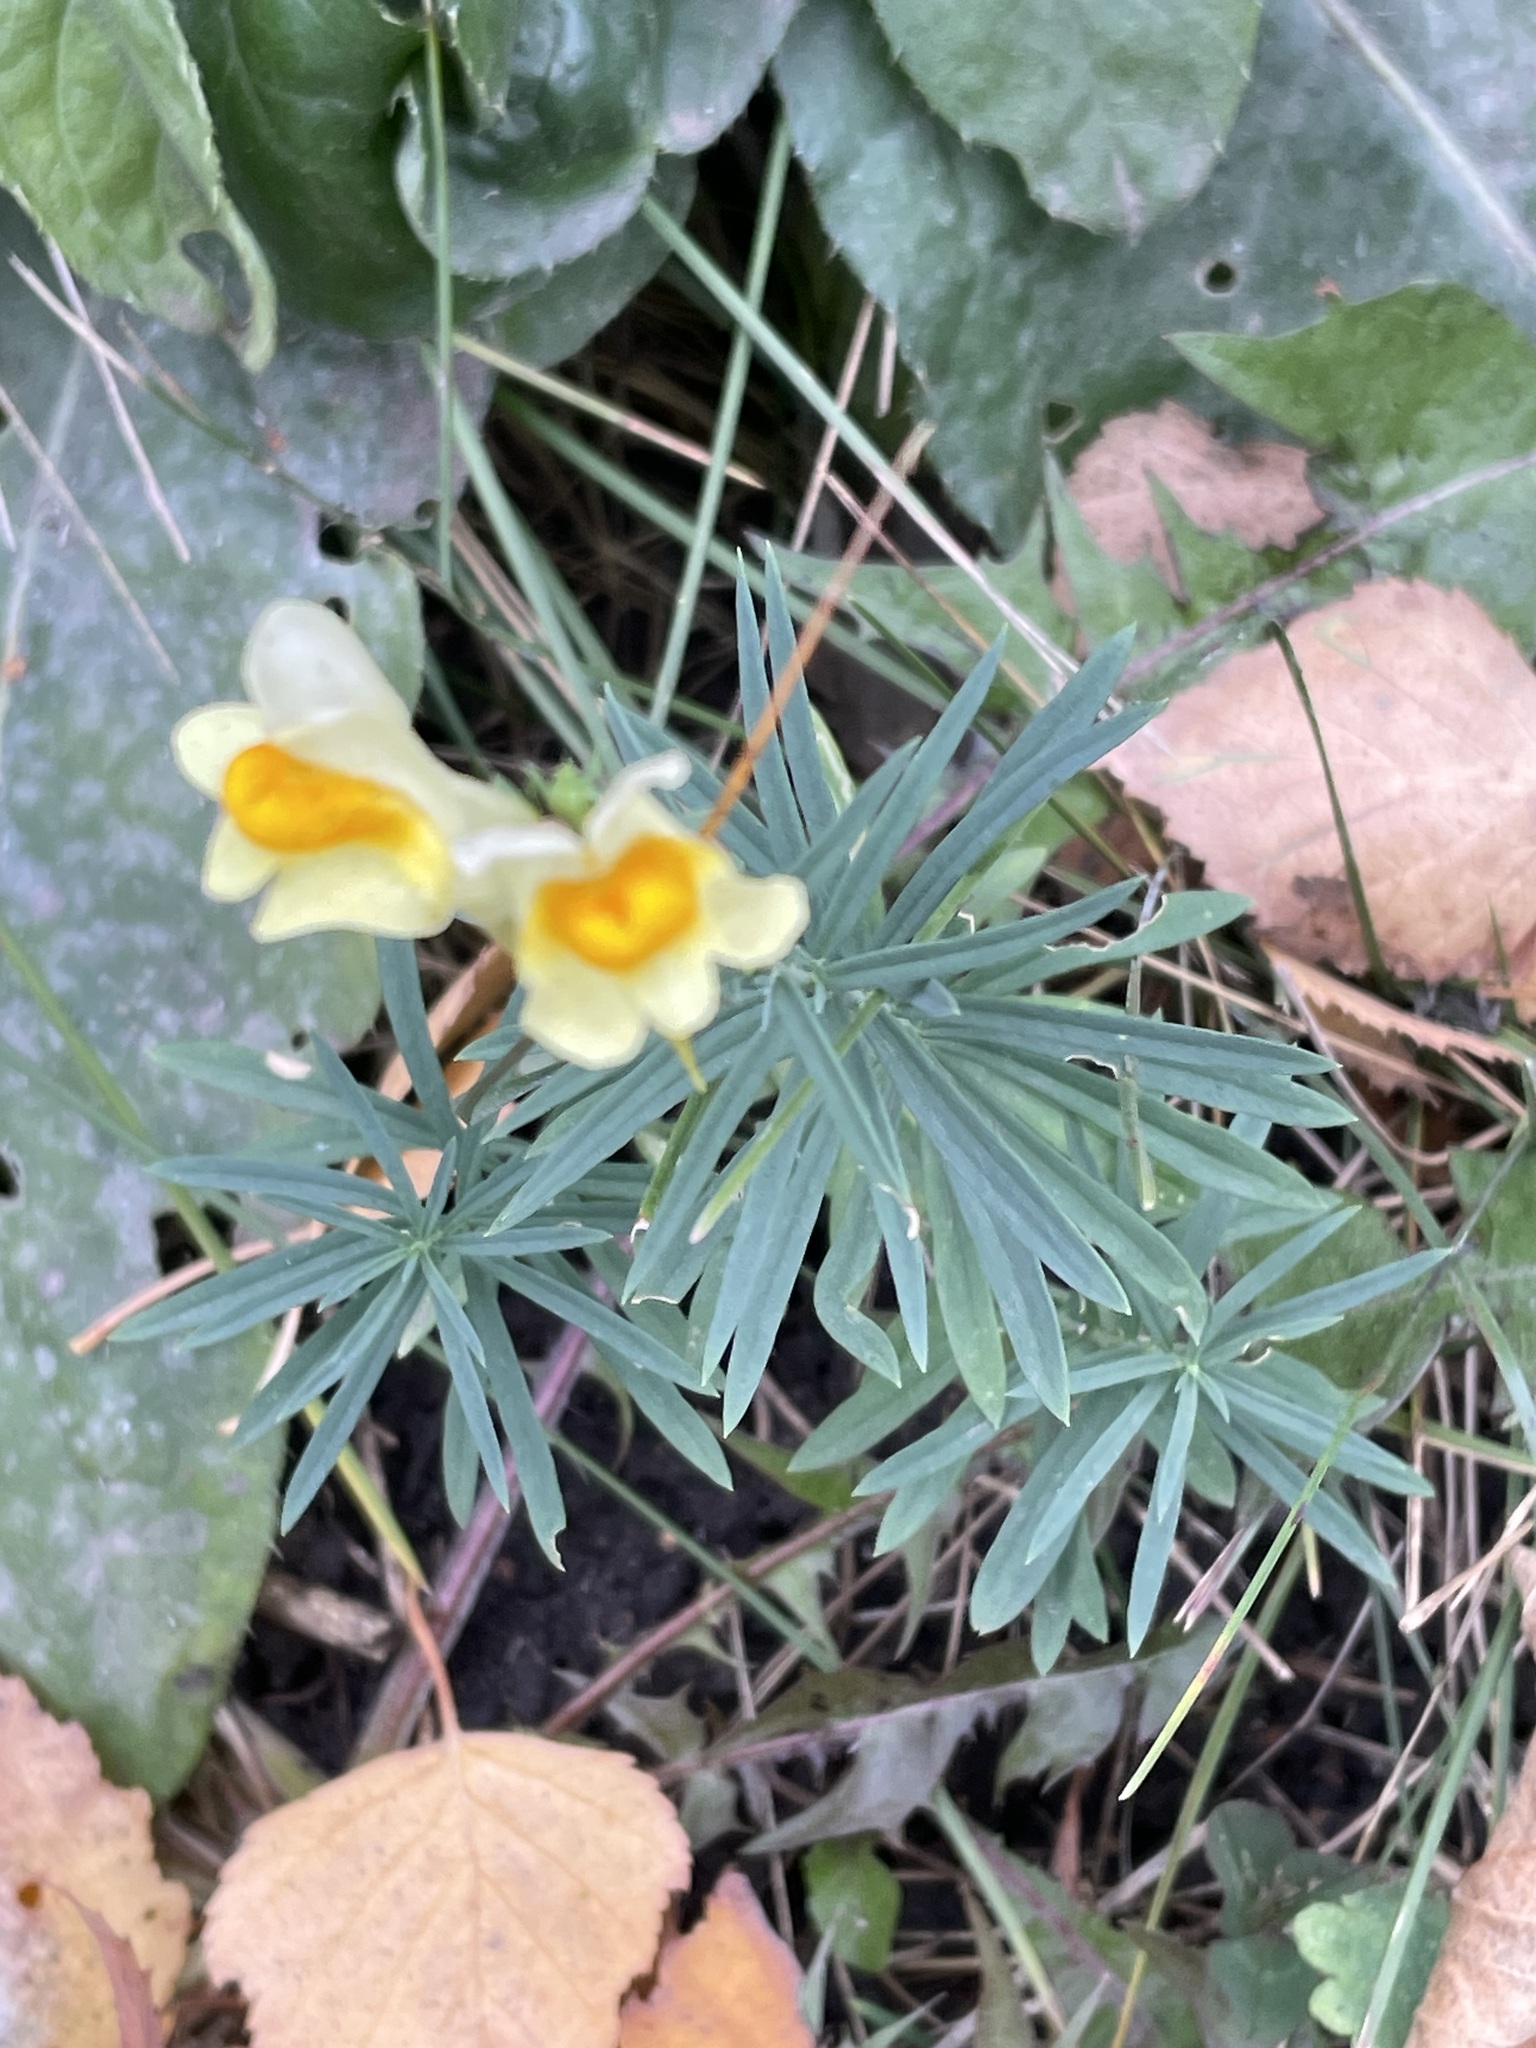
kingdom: Plantae
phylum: Tracheophyta
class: Magnoliopsida
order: Lamiales
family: Plantaginaceae
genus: Linaria
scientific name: Linaria vulgaris
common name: Butter and eggs
